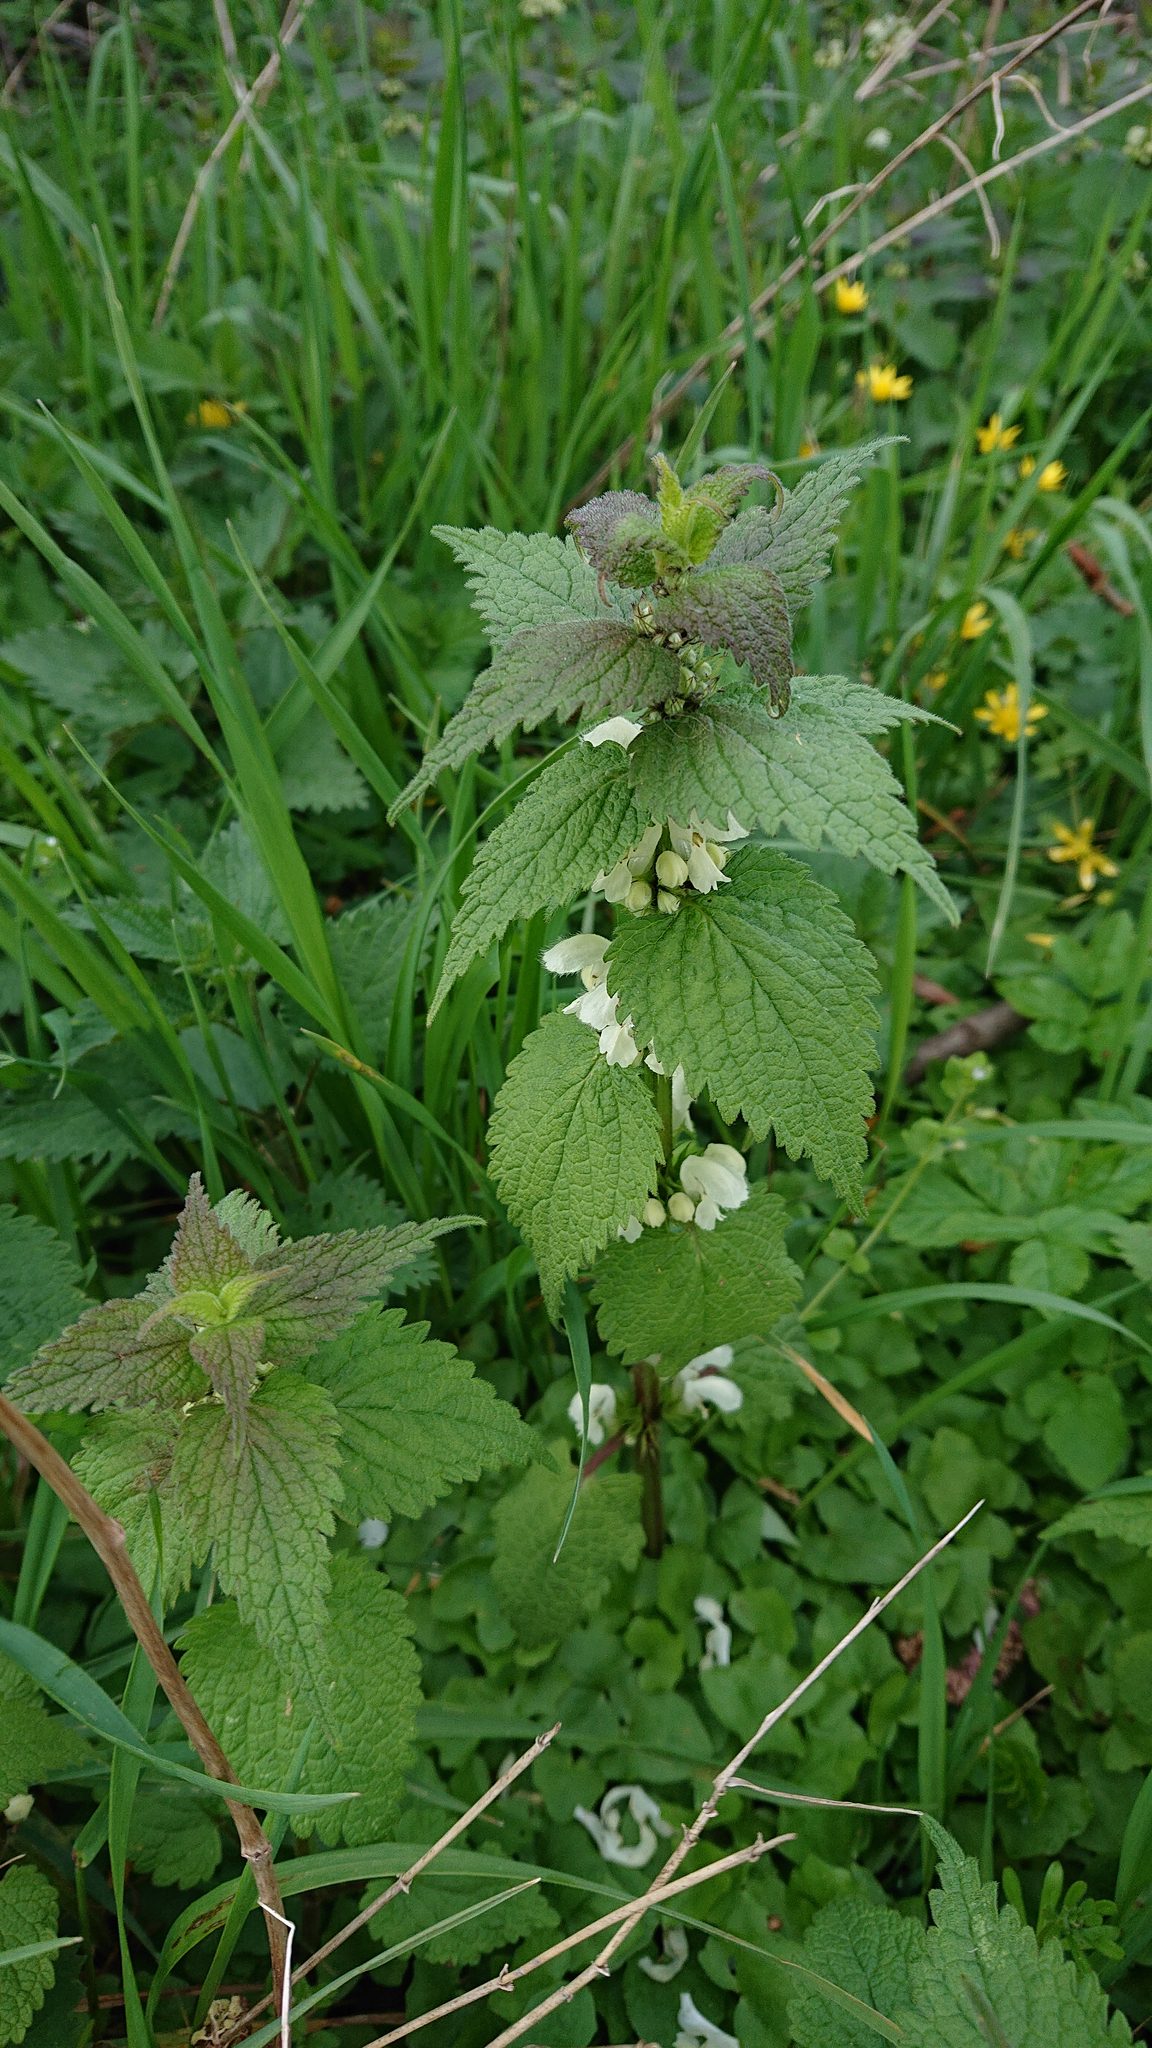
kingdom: Plantae
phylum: Tracheophyta
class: Magnoliopsida
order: Lamiales
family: Lamiaceae
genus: Lamium
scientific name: Lamium album
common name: White dead-nettle
